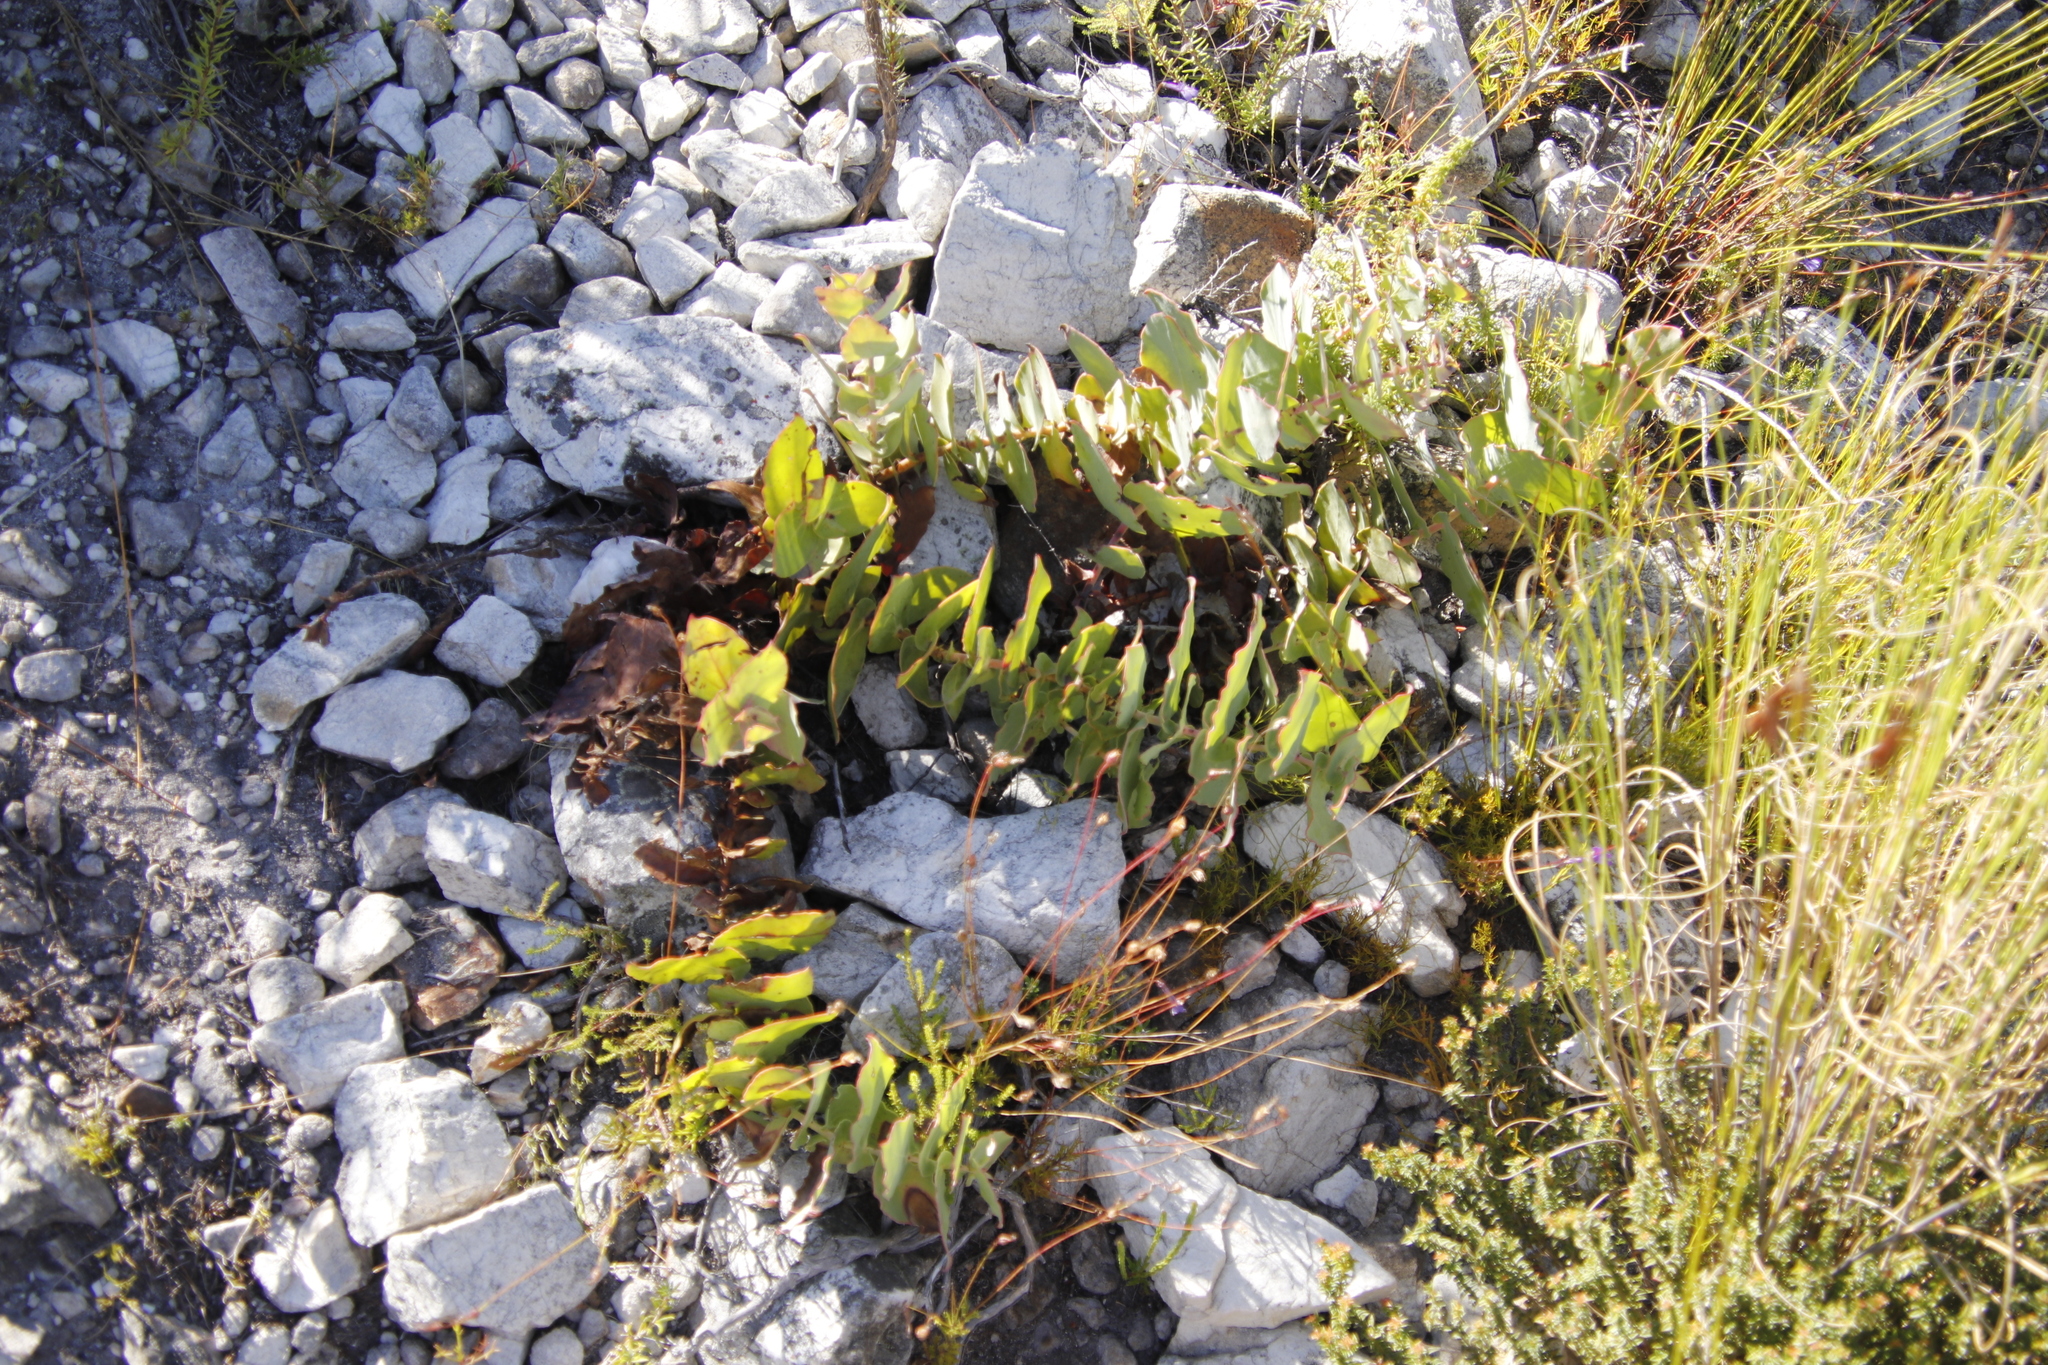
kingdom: Plantae
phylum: Tracheophyta
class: Magnoliopsida
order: Proteales
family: Proteaceae
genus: Protea
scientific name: Protea amplexicaulis
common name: Clasping-leaf sugarbush
